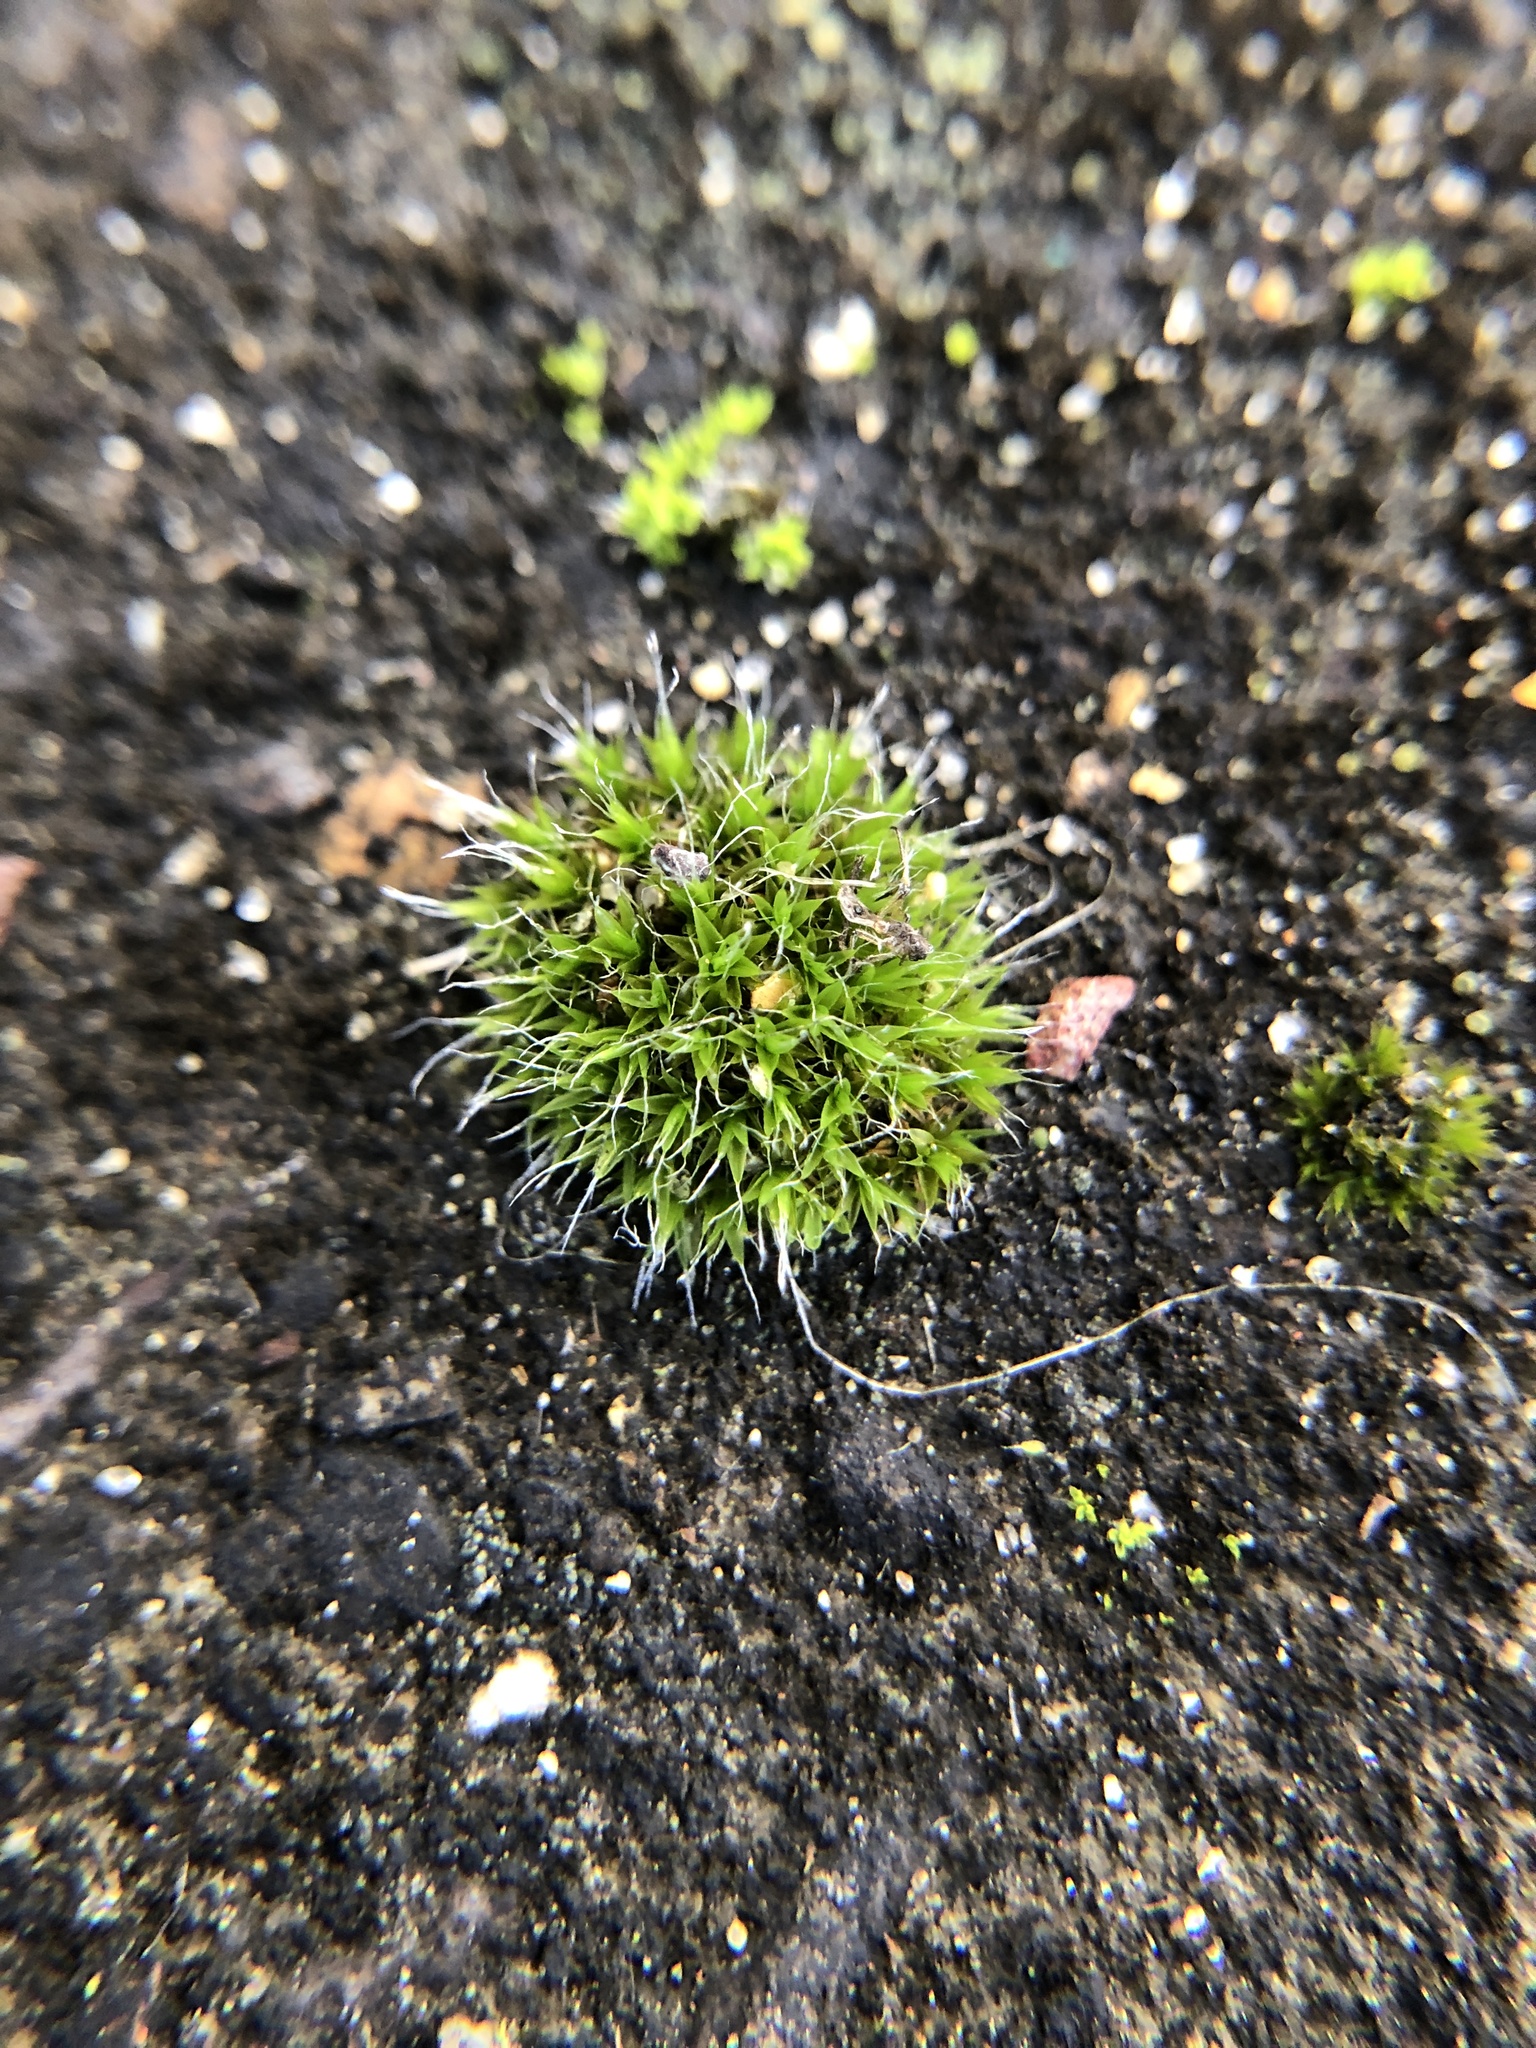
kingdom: Plantae
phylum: Bryophyta
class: Bryopsida
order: Grimmiales
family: Grimmiaceae
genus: Grimmia
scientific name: Grimmia pulvinata
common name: Grey-cushioned grimmia
